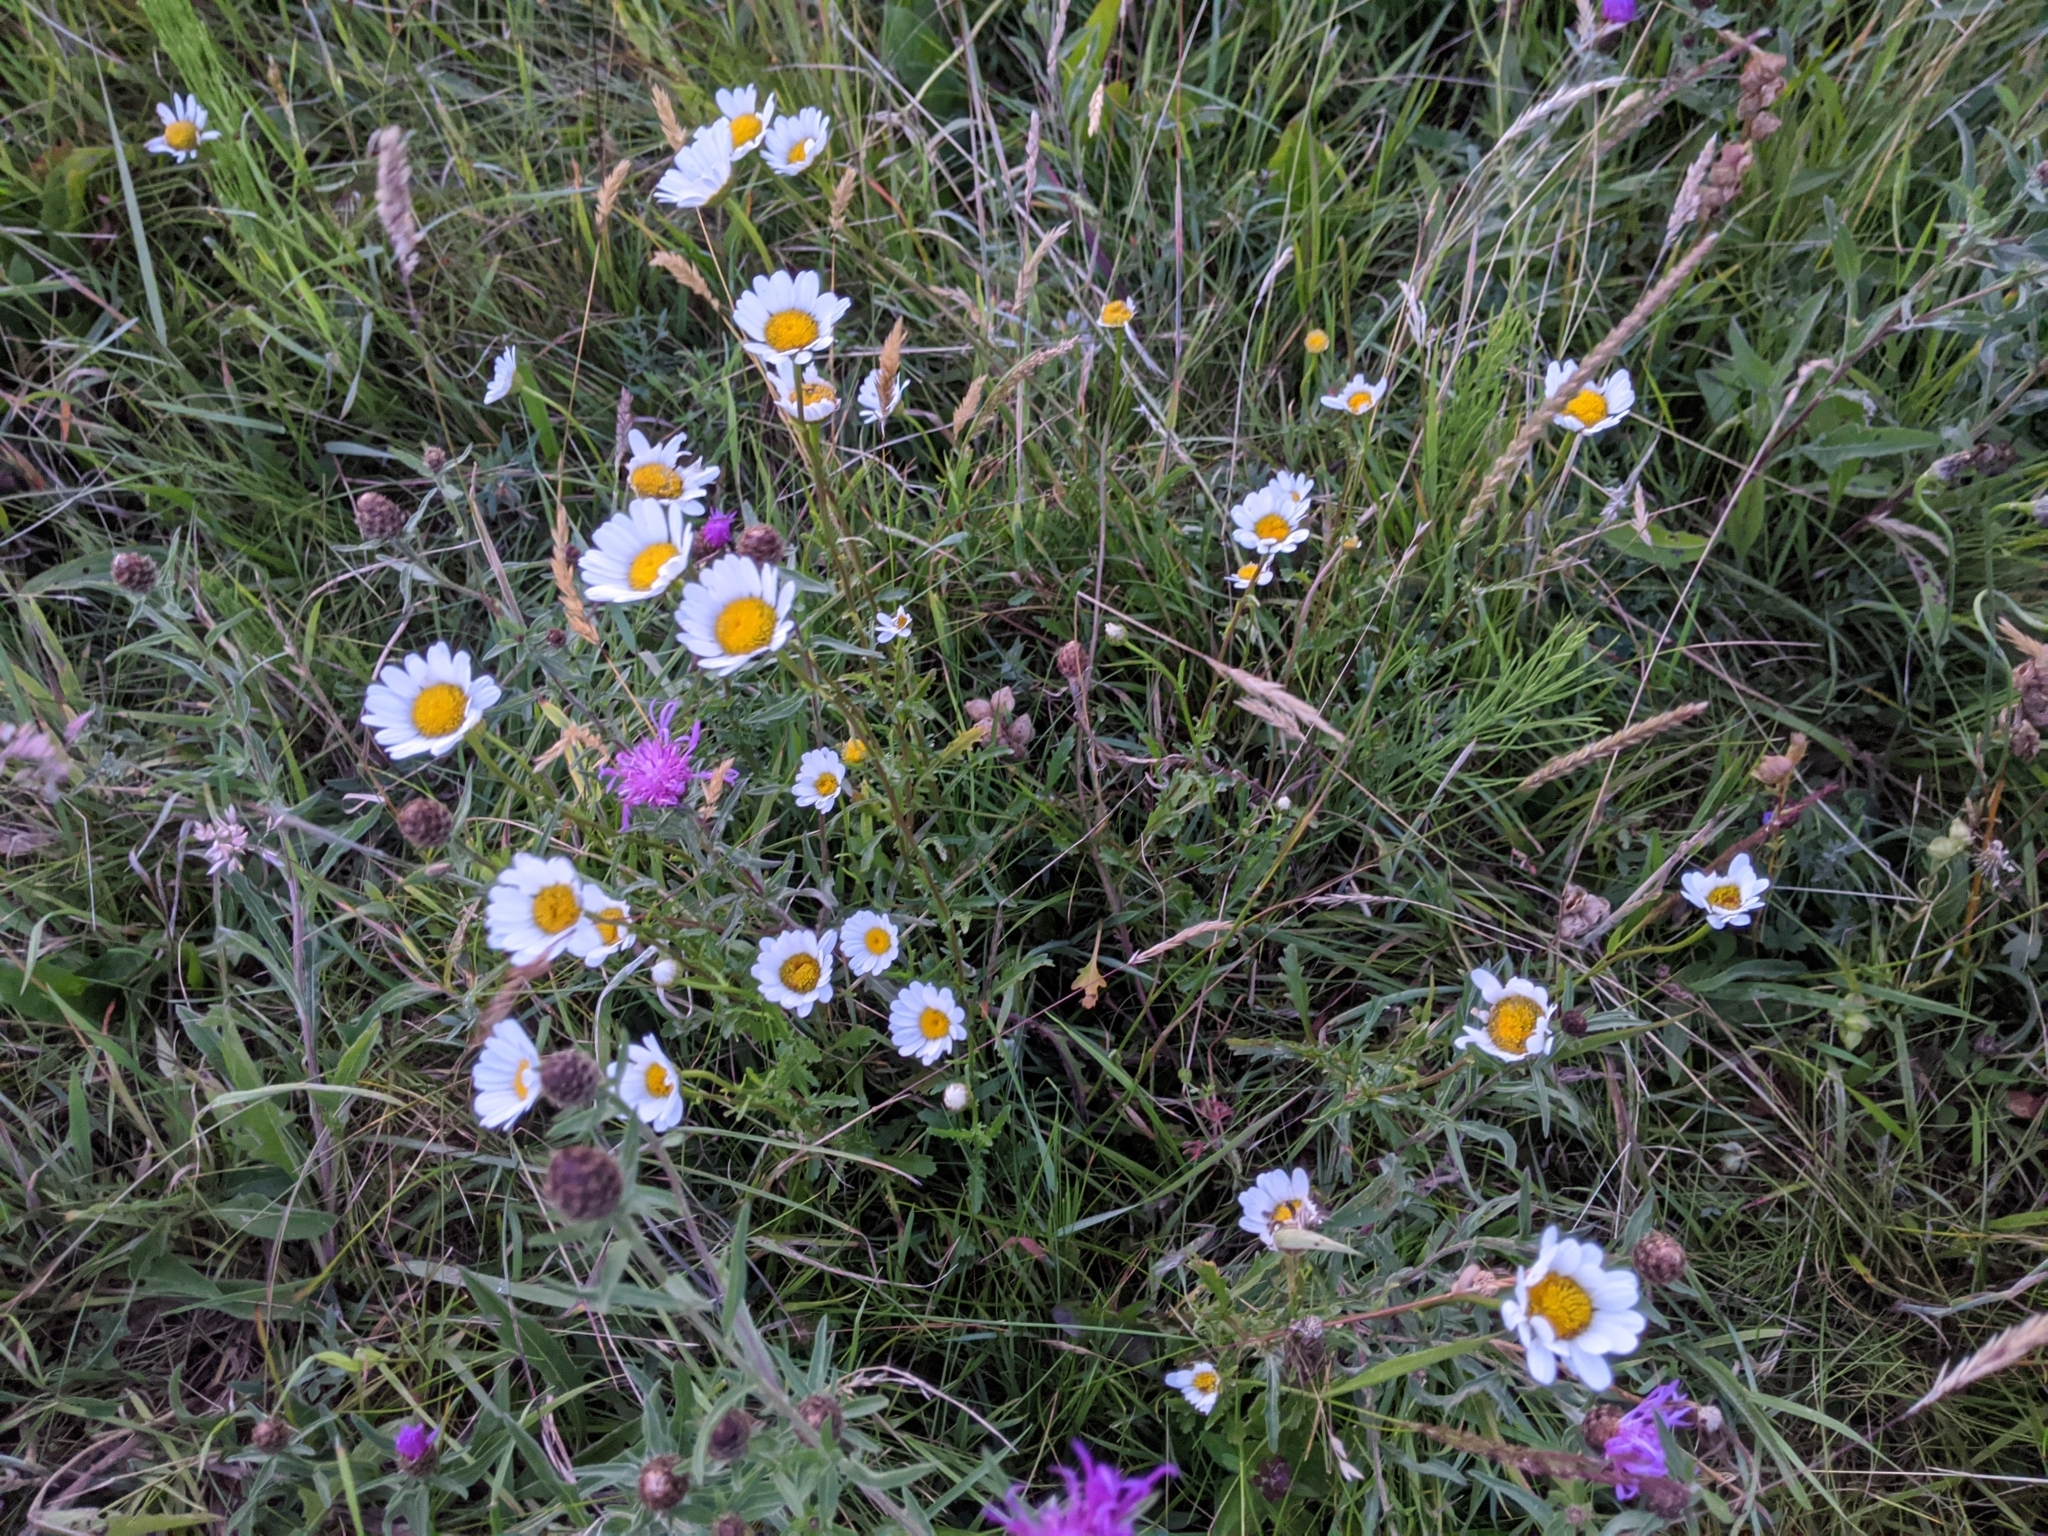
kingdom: Plantae
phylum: Tracheophyta
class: Magnoliopsida
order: Asterales
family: Asteraceae
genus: Leucanthemum
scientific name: Leucanthemum vulgare
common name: Oxeye daisy
